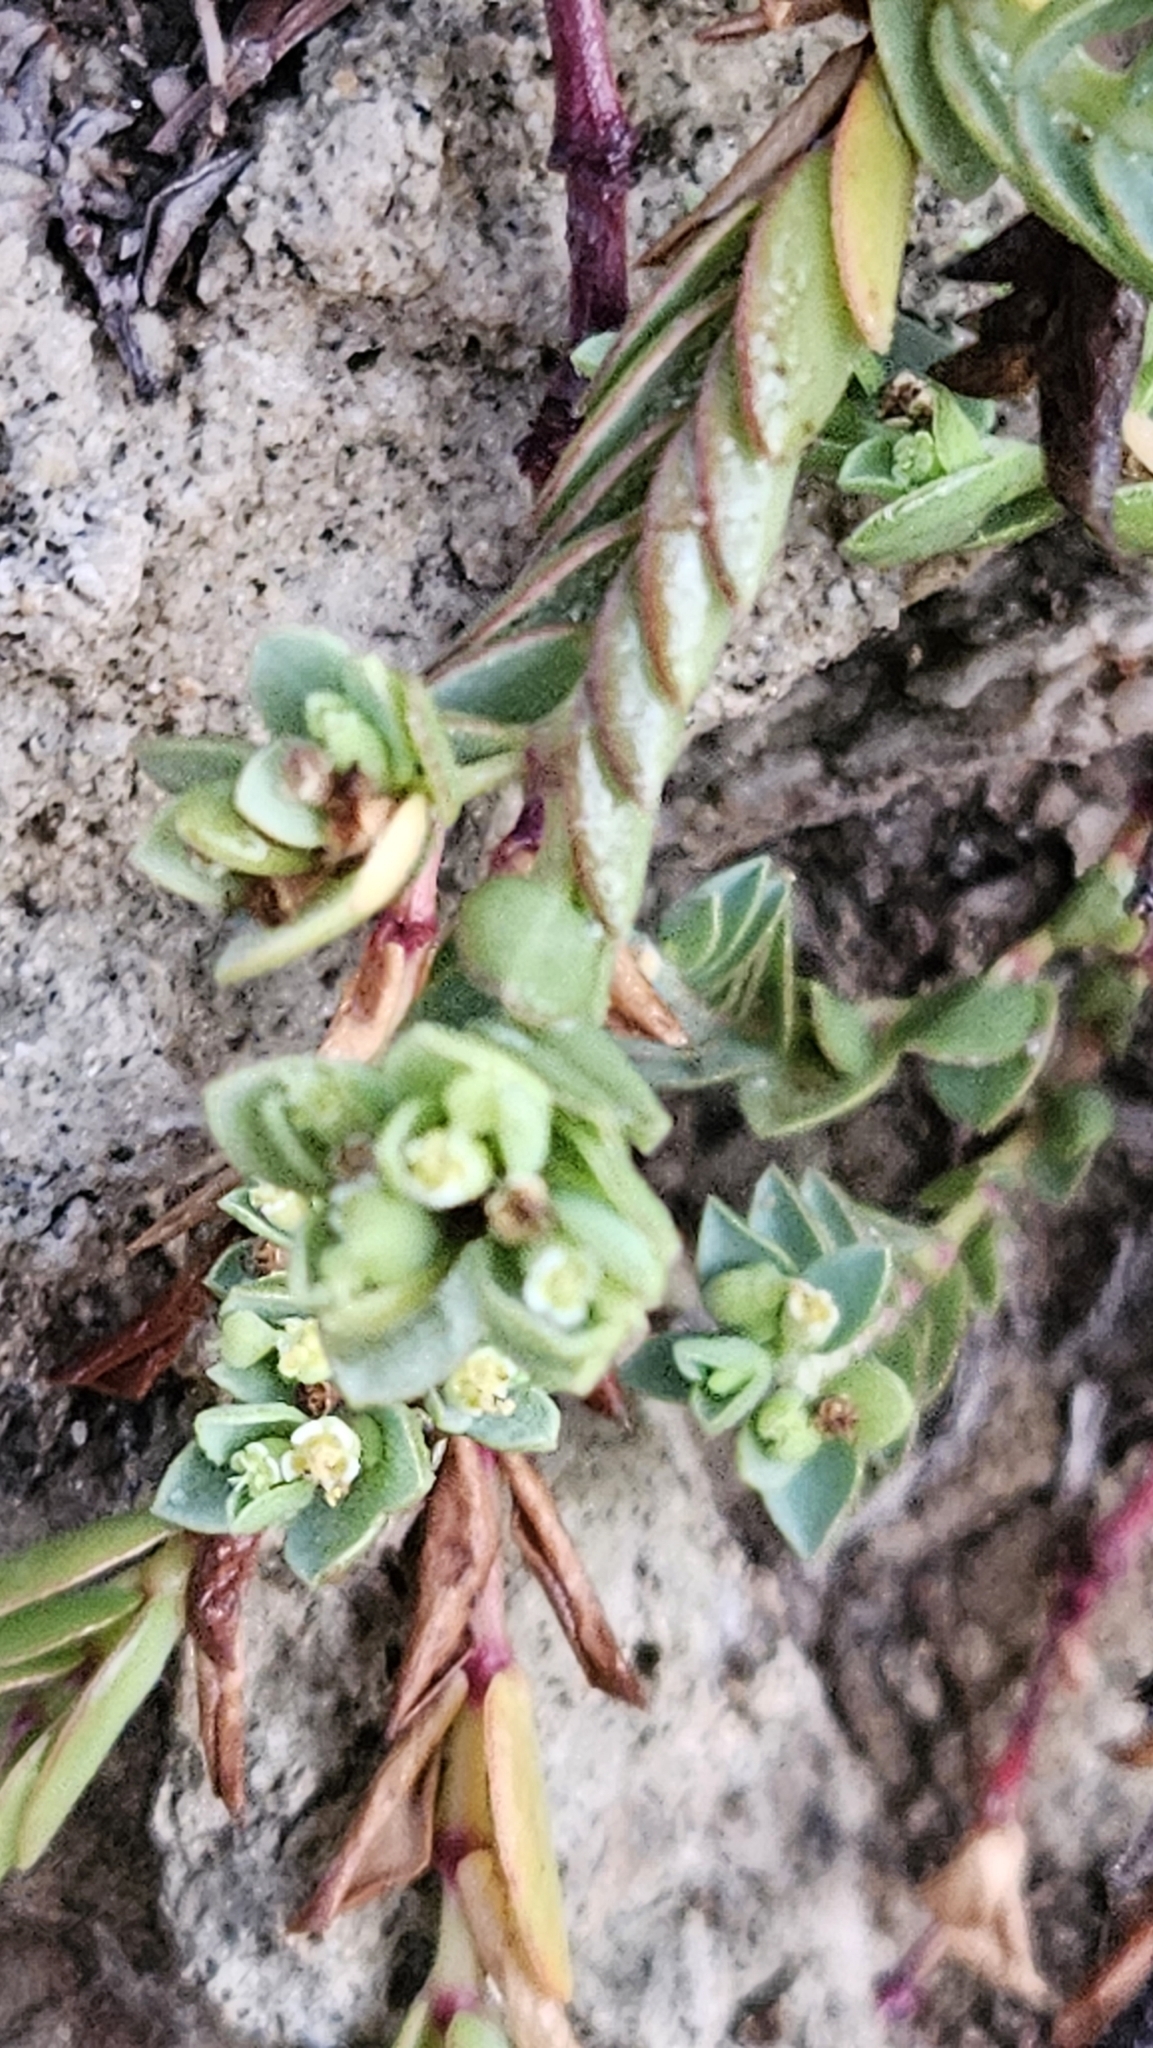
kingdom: Plantae
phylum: Tracheophyta
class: Magnoliopsida
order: Malpighiales
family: Euphorbiaceae
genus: Euphorbia
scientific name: Euphorbia mesembryanthemifolia
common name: Coastal beach sandmat
